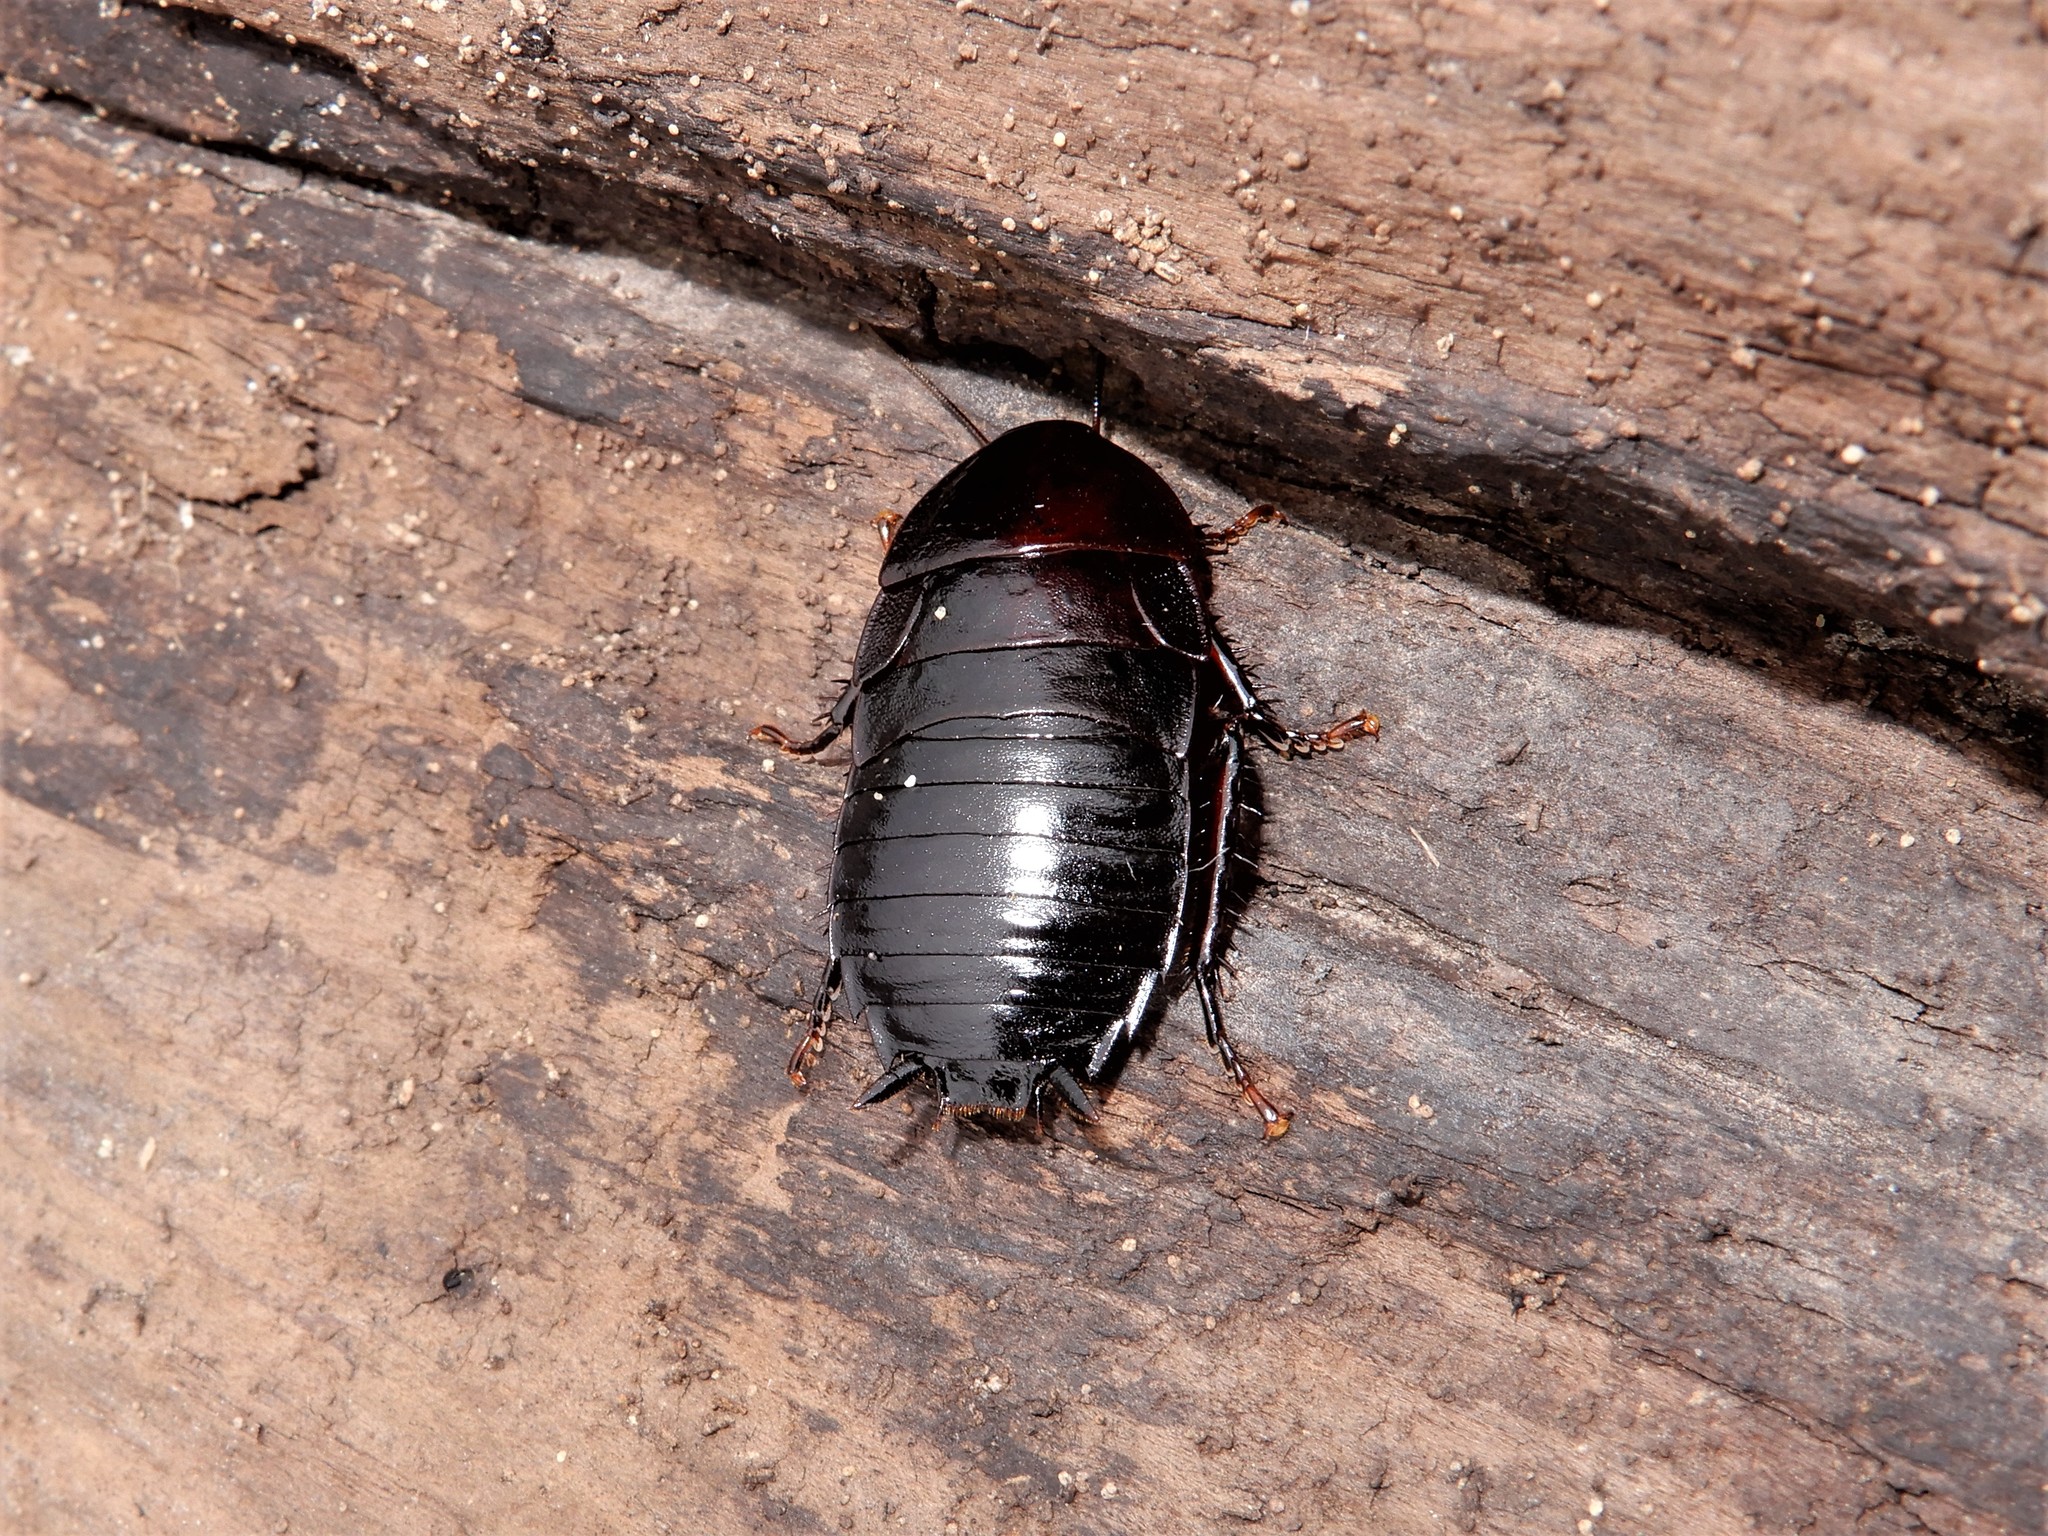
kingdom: Animalia
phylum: Arthropoda
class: Insecta
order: Blattodea
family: Blattidae
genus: Maoriblatta
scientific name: Maoriblatta novaeseelandiae
